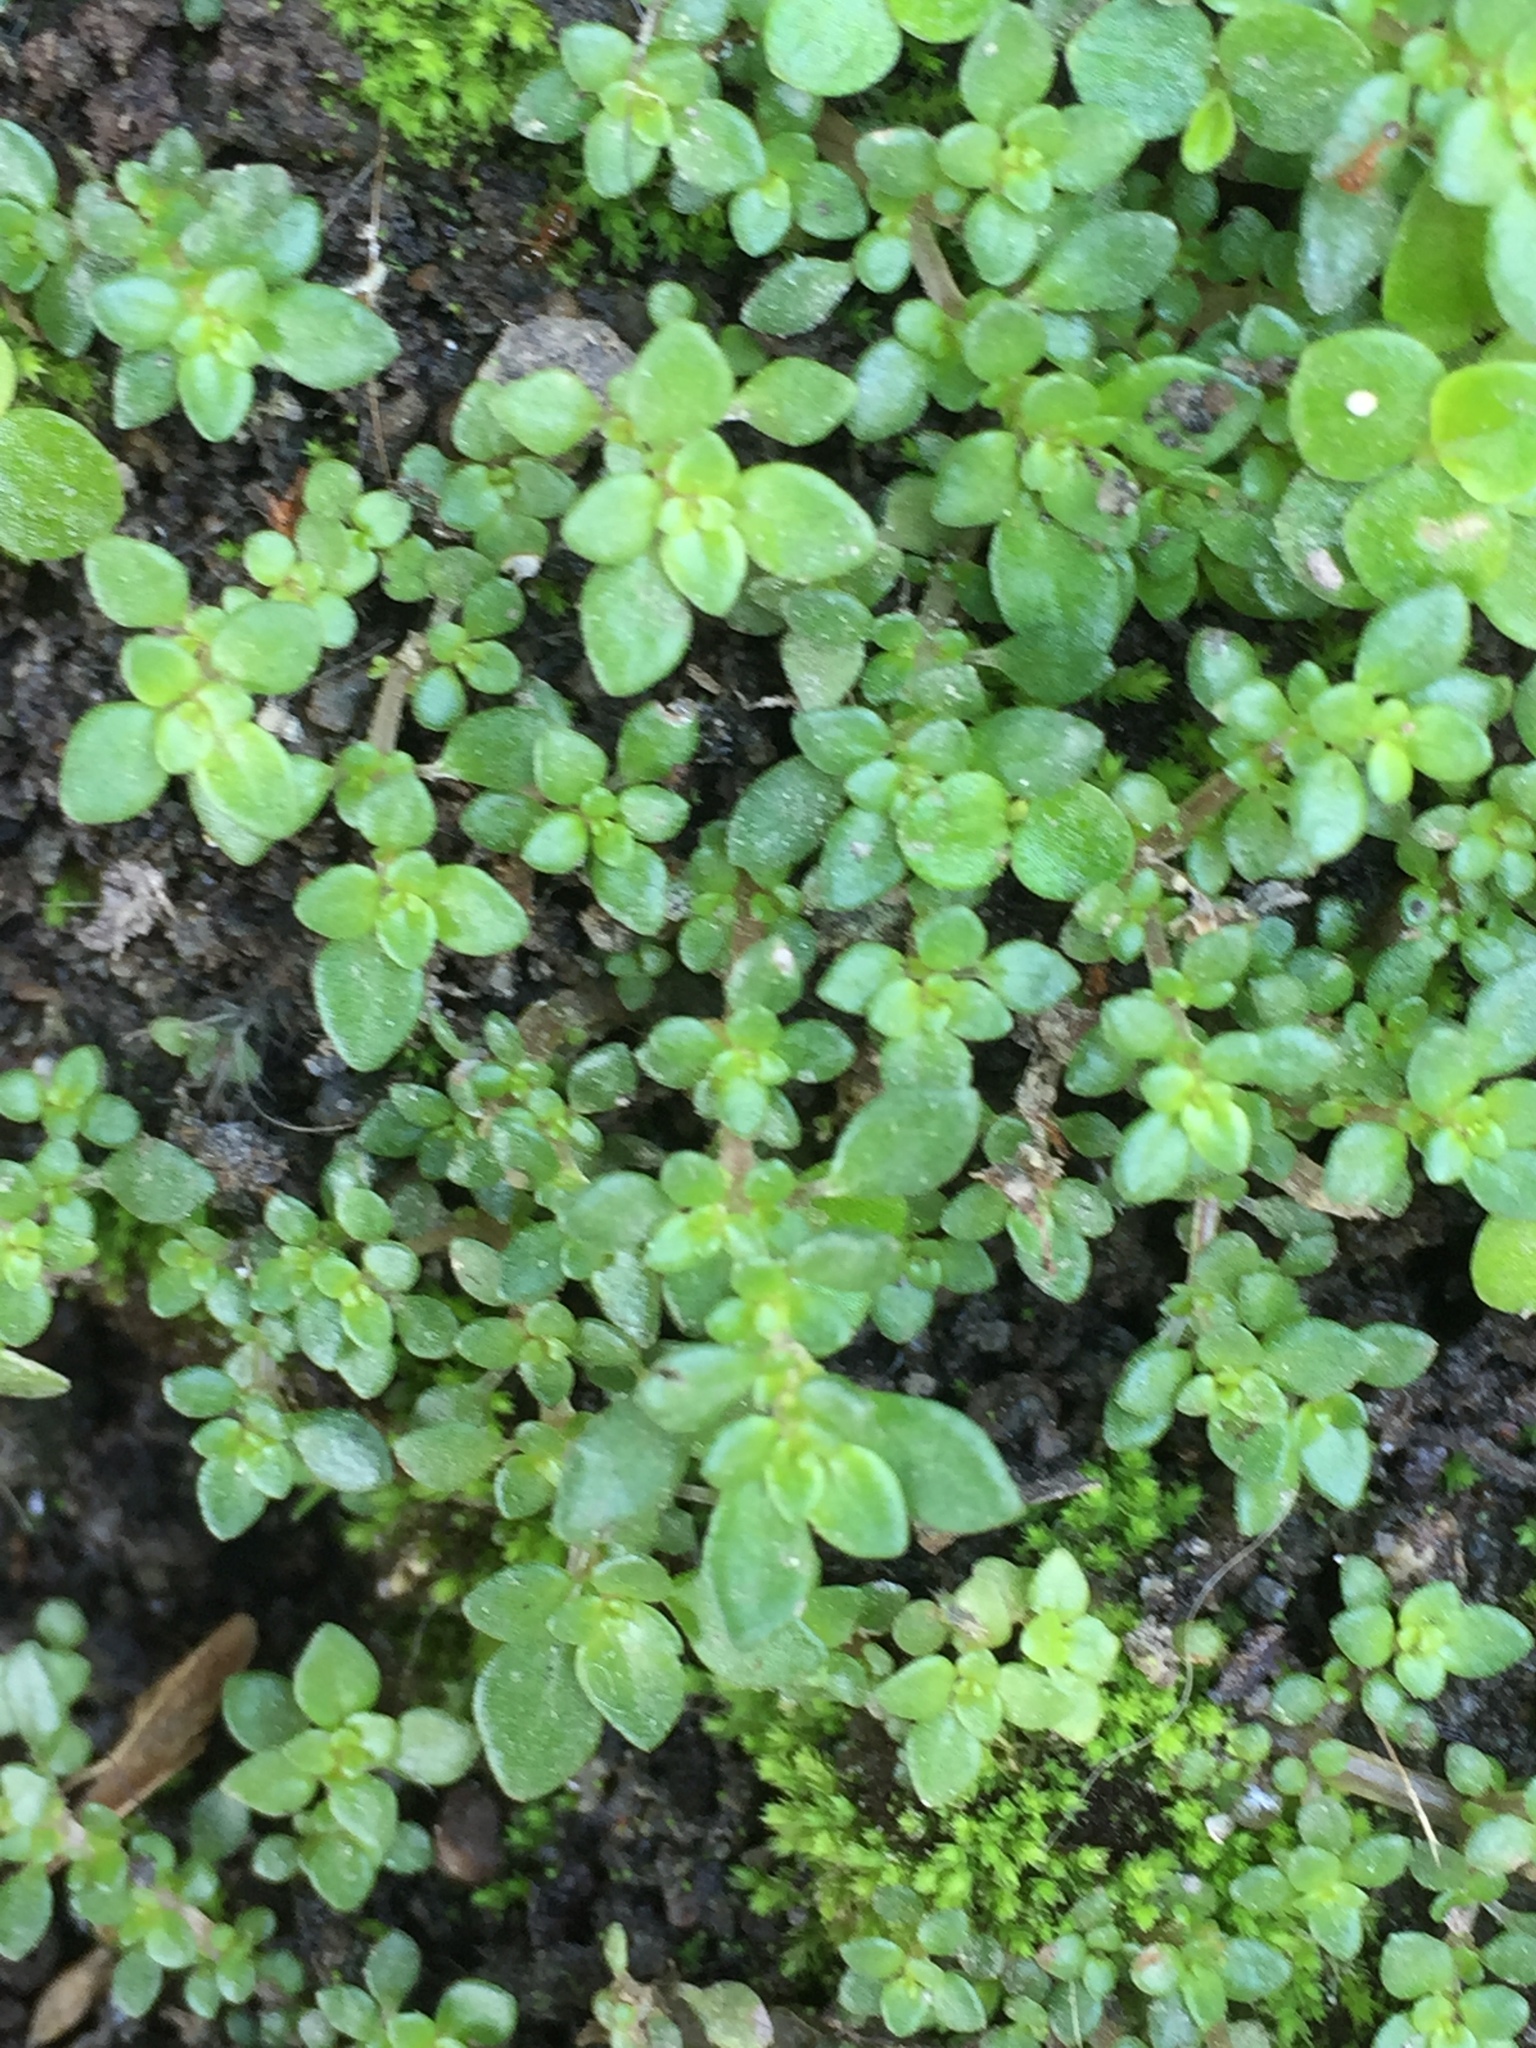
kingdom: Plantae
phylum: Tracheophyta
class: Magnoliopsida
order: Rosales
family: Urticaceae
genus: Pilea
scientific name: Pilea microphylla
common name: Artillery-plant
